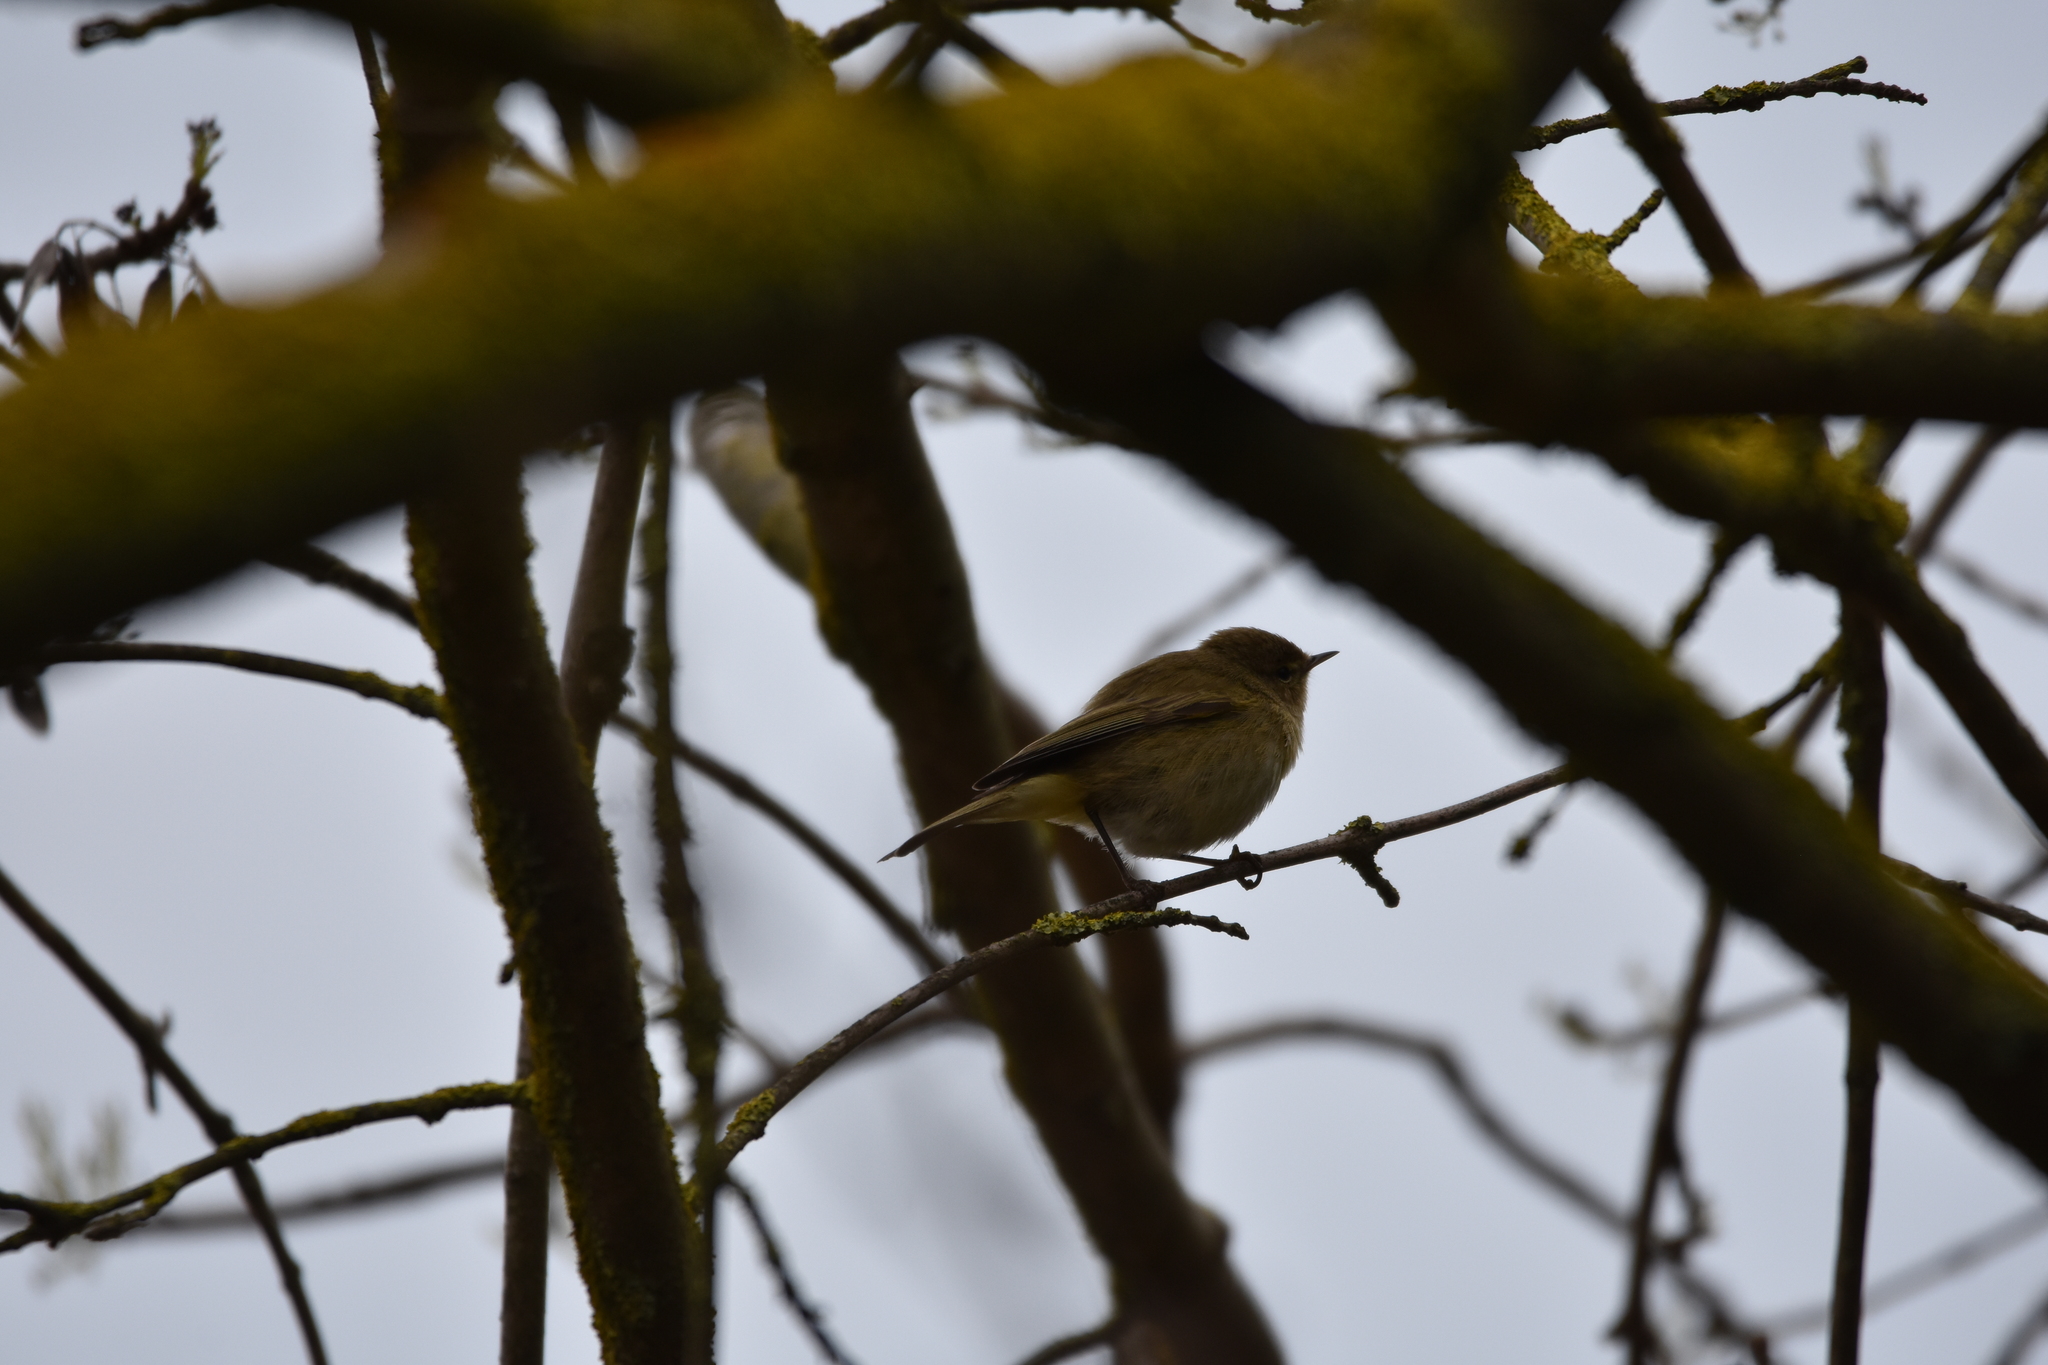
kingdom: Animalia
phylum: Chordata
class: Aves
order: Passeriformes
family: Phylloscopidae
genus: Phylloscopus
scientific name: Phylloscopus collybita
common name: Common chiffchaff
